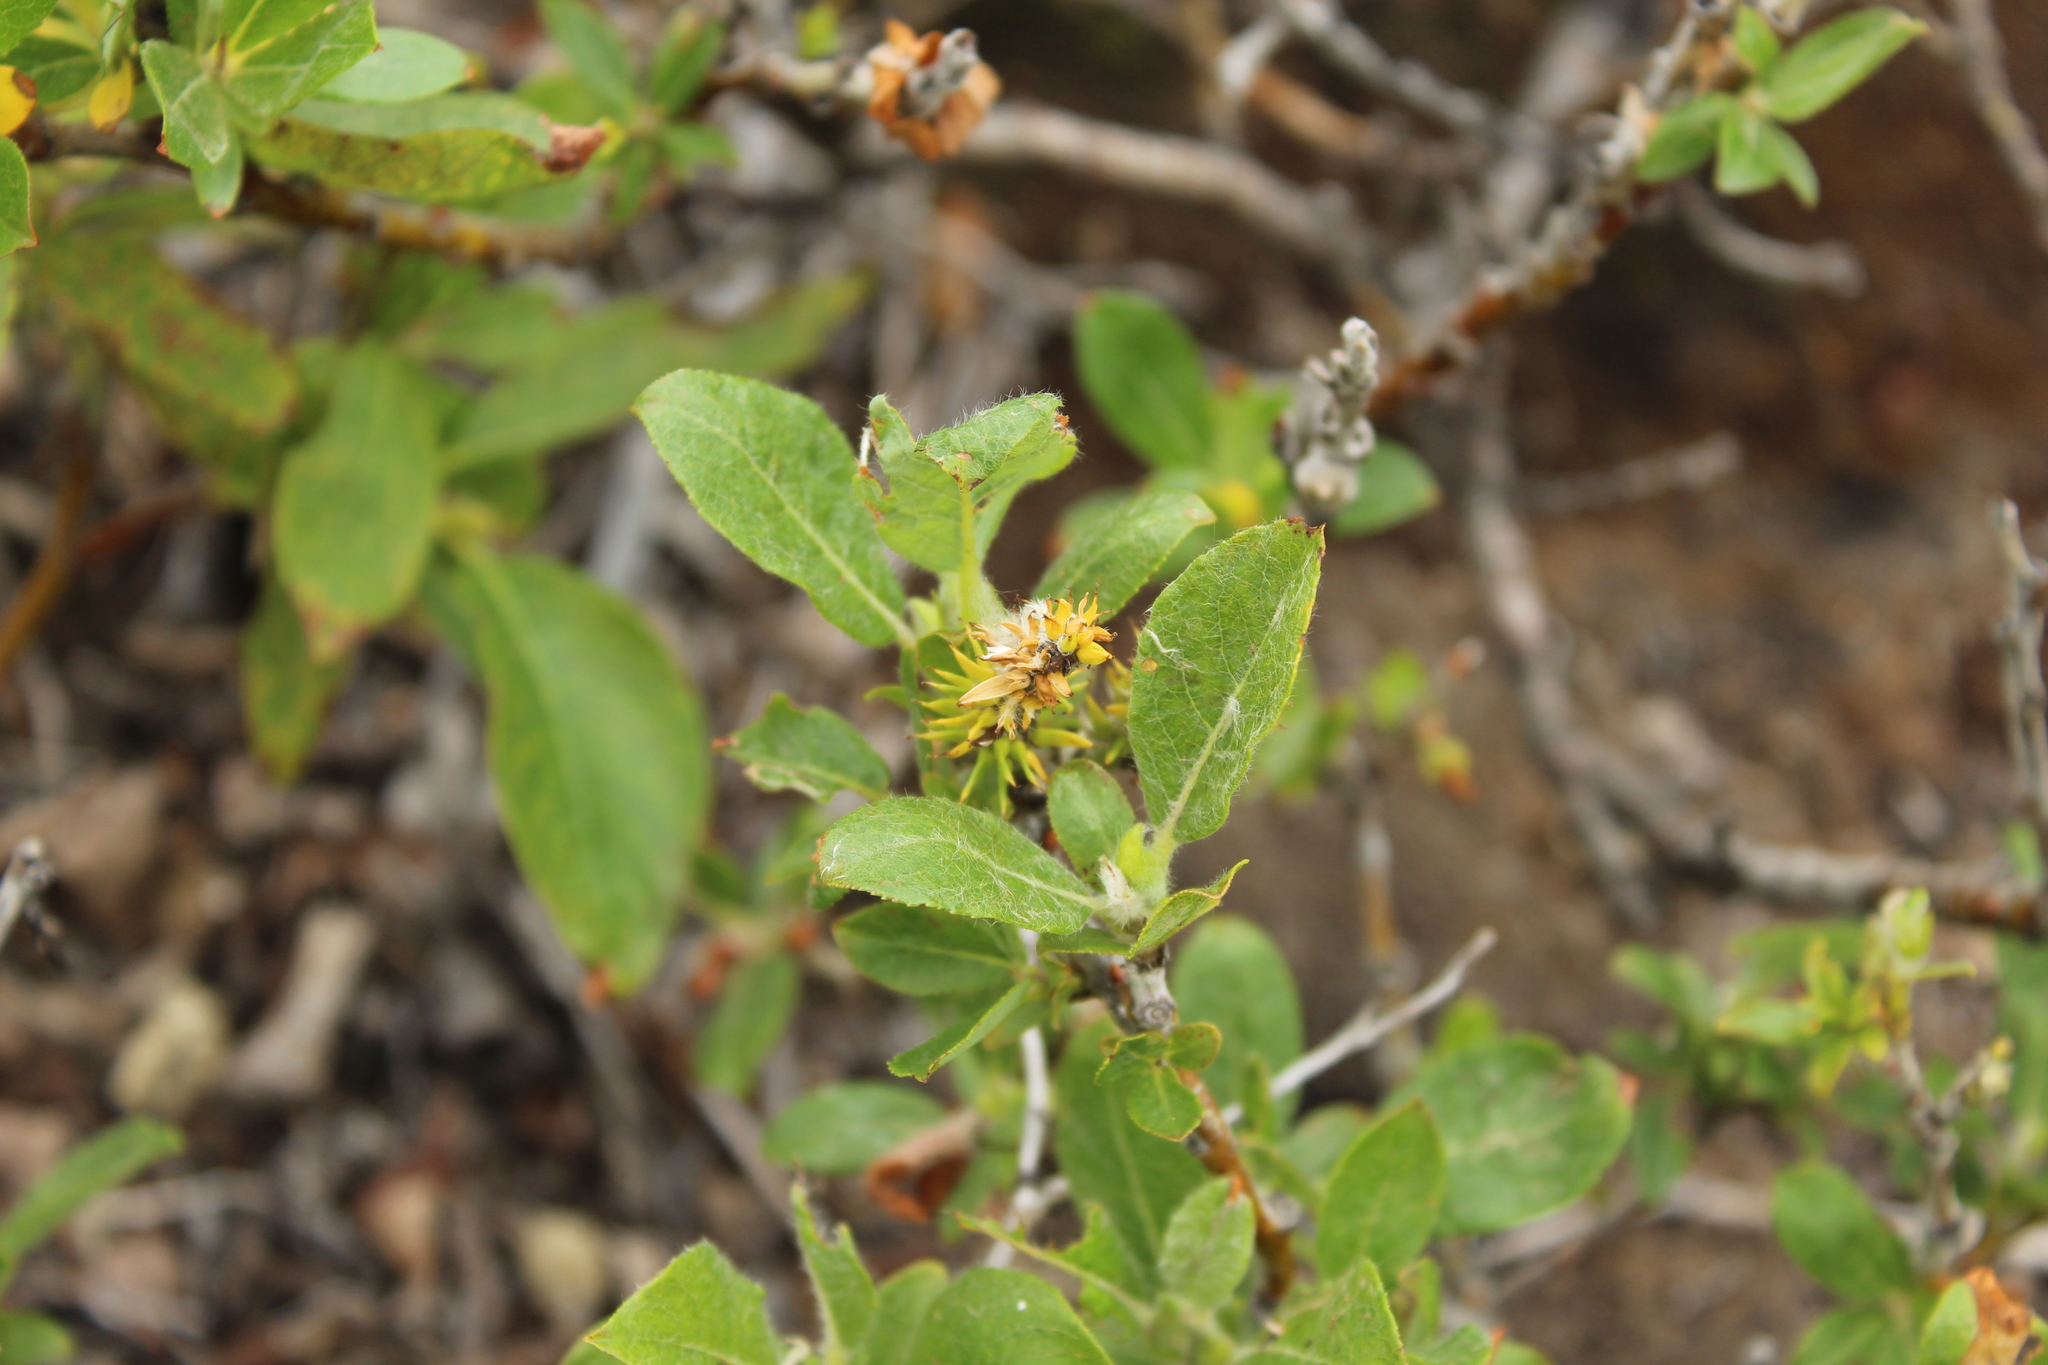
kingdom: Plantae
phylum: Tracheophyta
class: Magnoliopsida
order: Malpighiales
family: Salicaceae
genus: Salix
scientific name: Salix lanata
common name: Woolly willow
